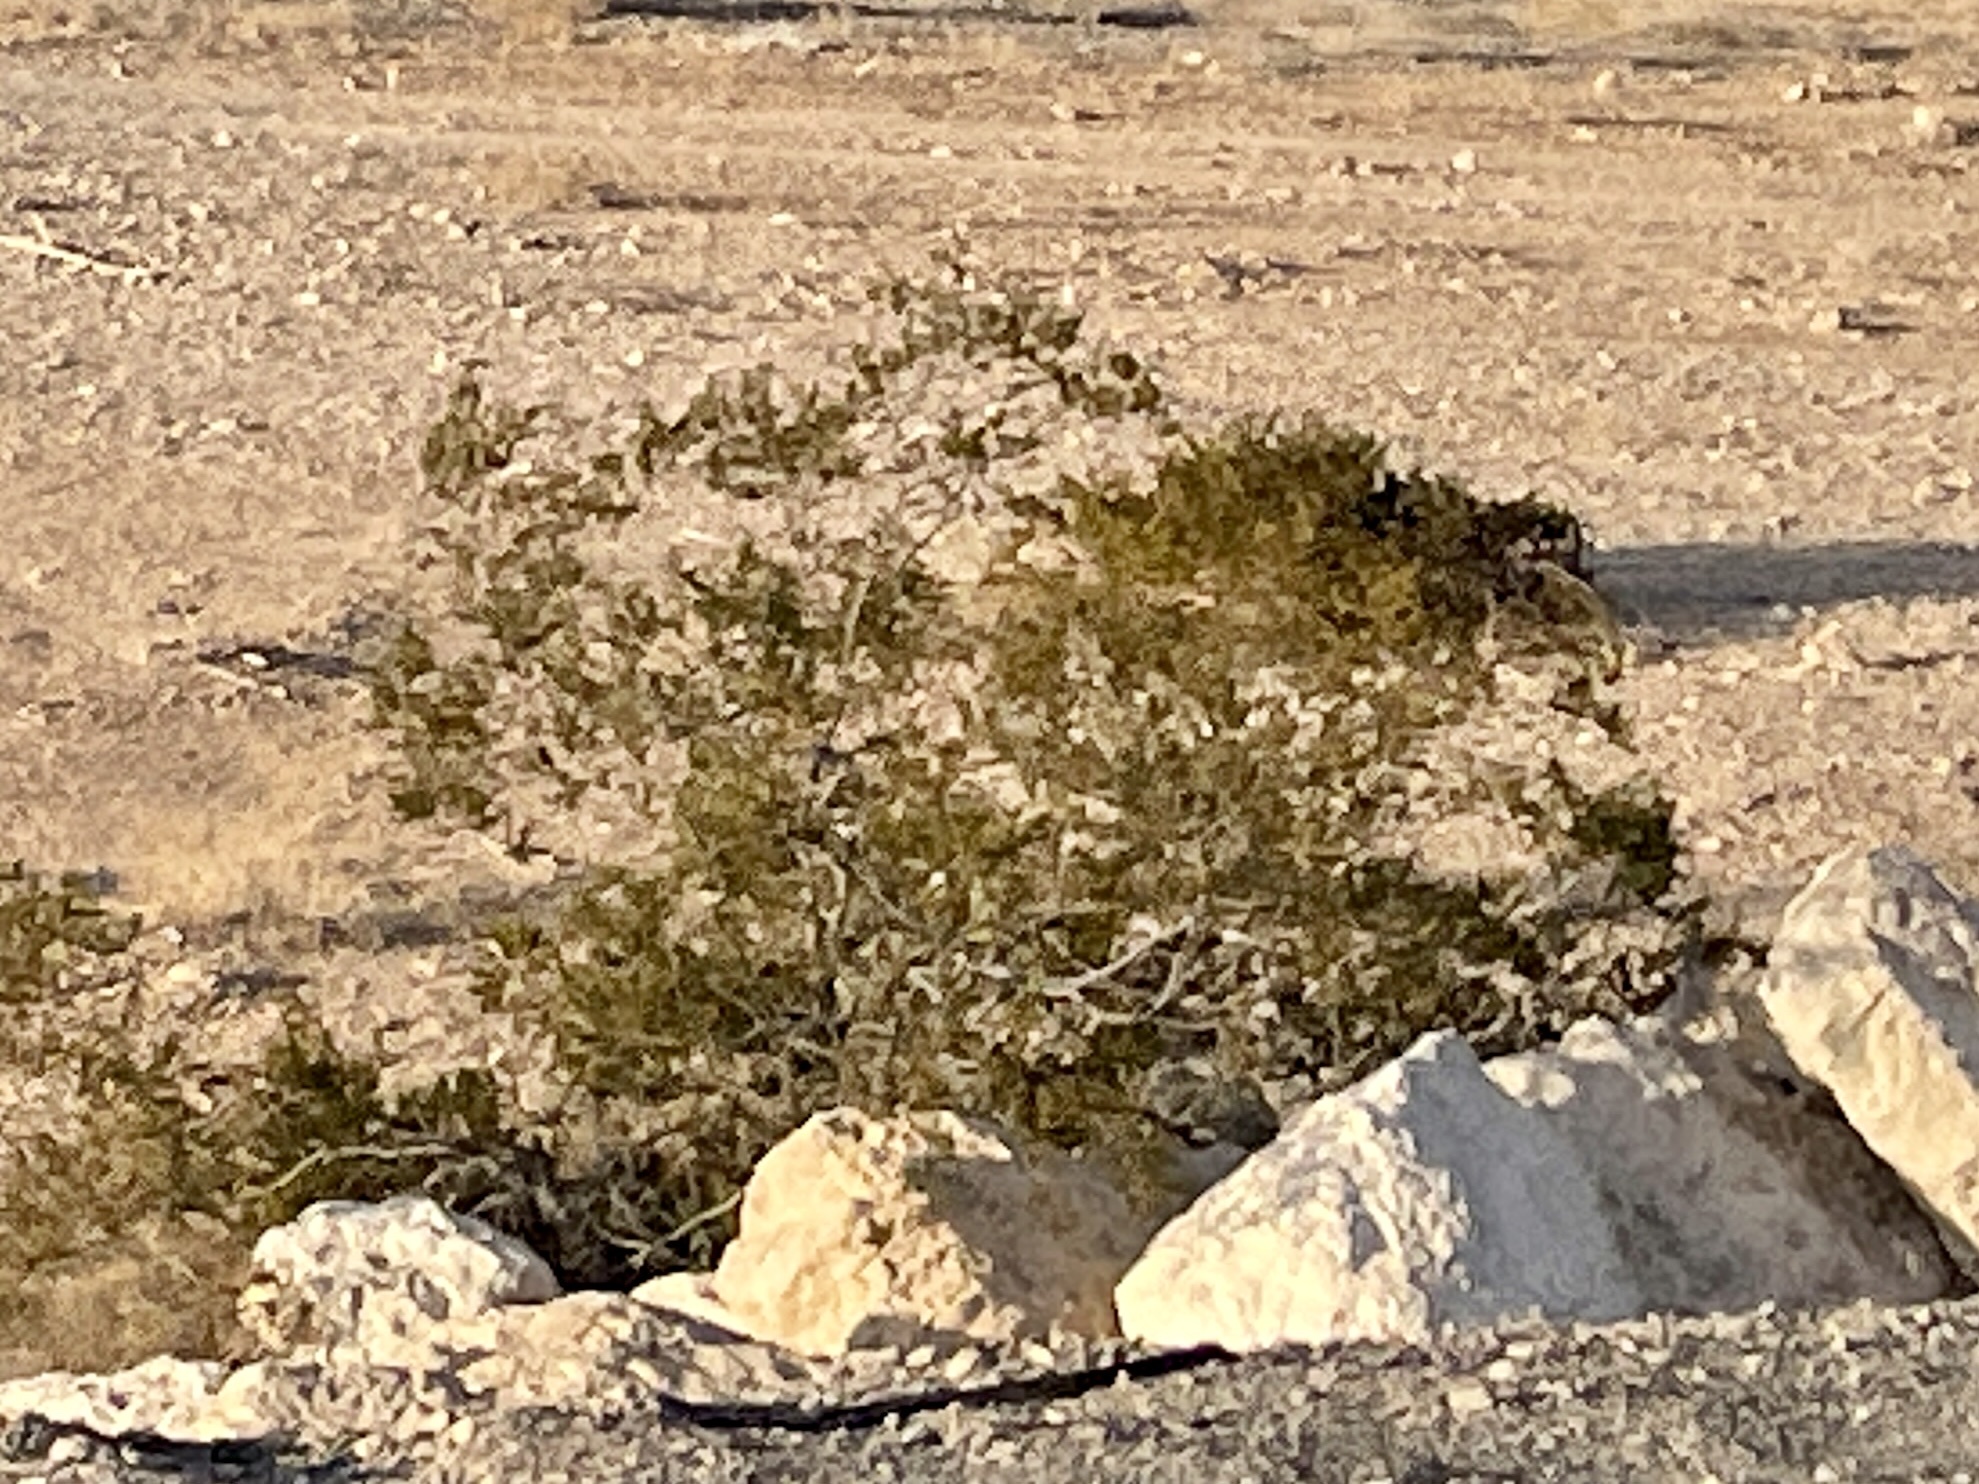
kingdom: Plantae
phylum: Tracheophyta
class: Magnoliopsida
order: Zygophyllales
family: Zygophyllaceae
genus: Larrea
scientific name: Larrea tridentata
